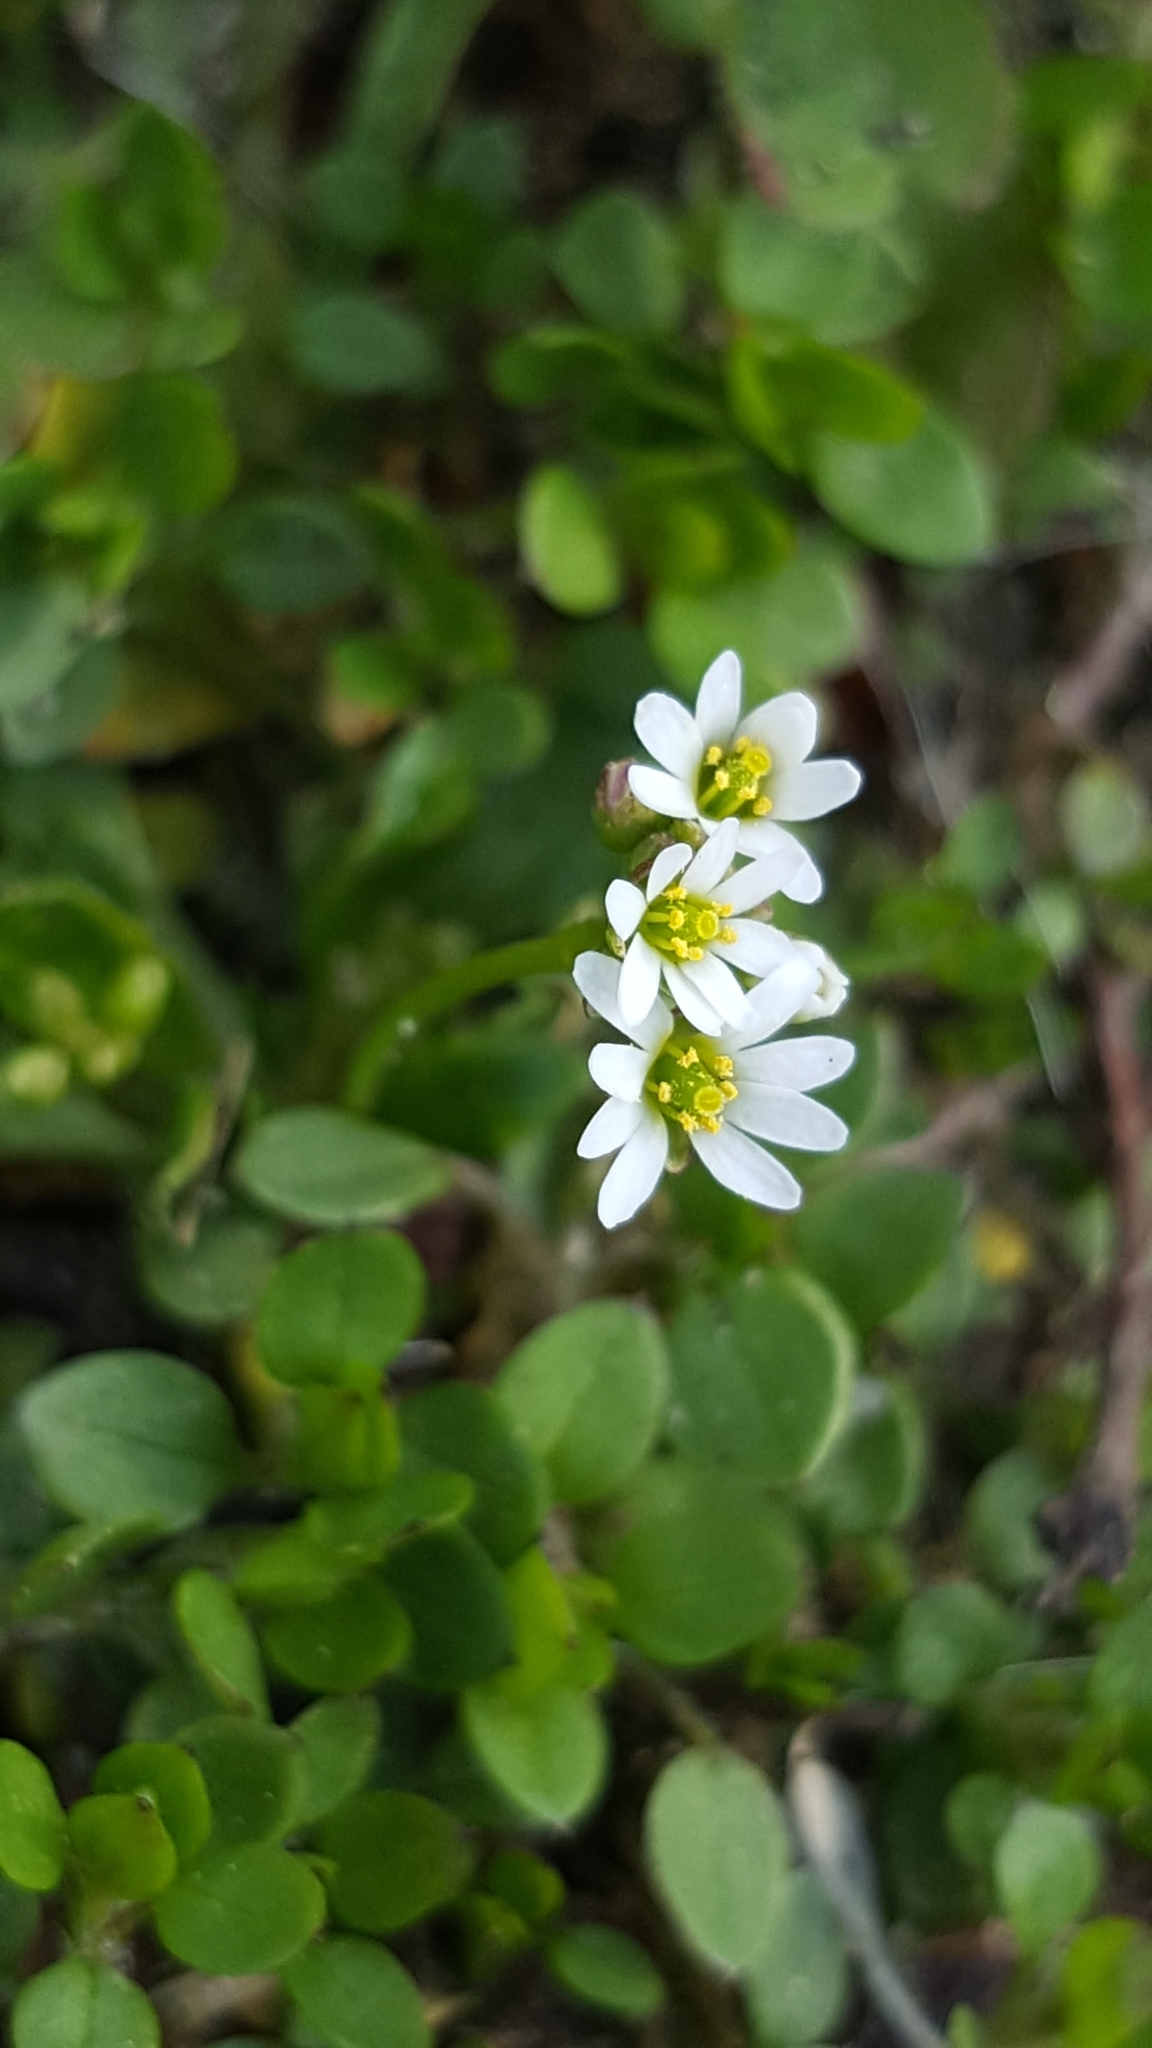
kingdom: Plantae
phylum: Tracheophyta
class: Magnoliopsida
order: Brassicales
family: Brassicaceae
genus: Draba
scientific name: Draba verna
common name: Spring draba
